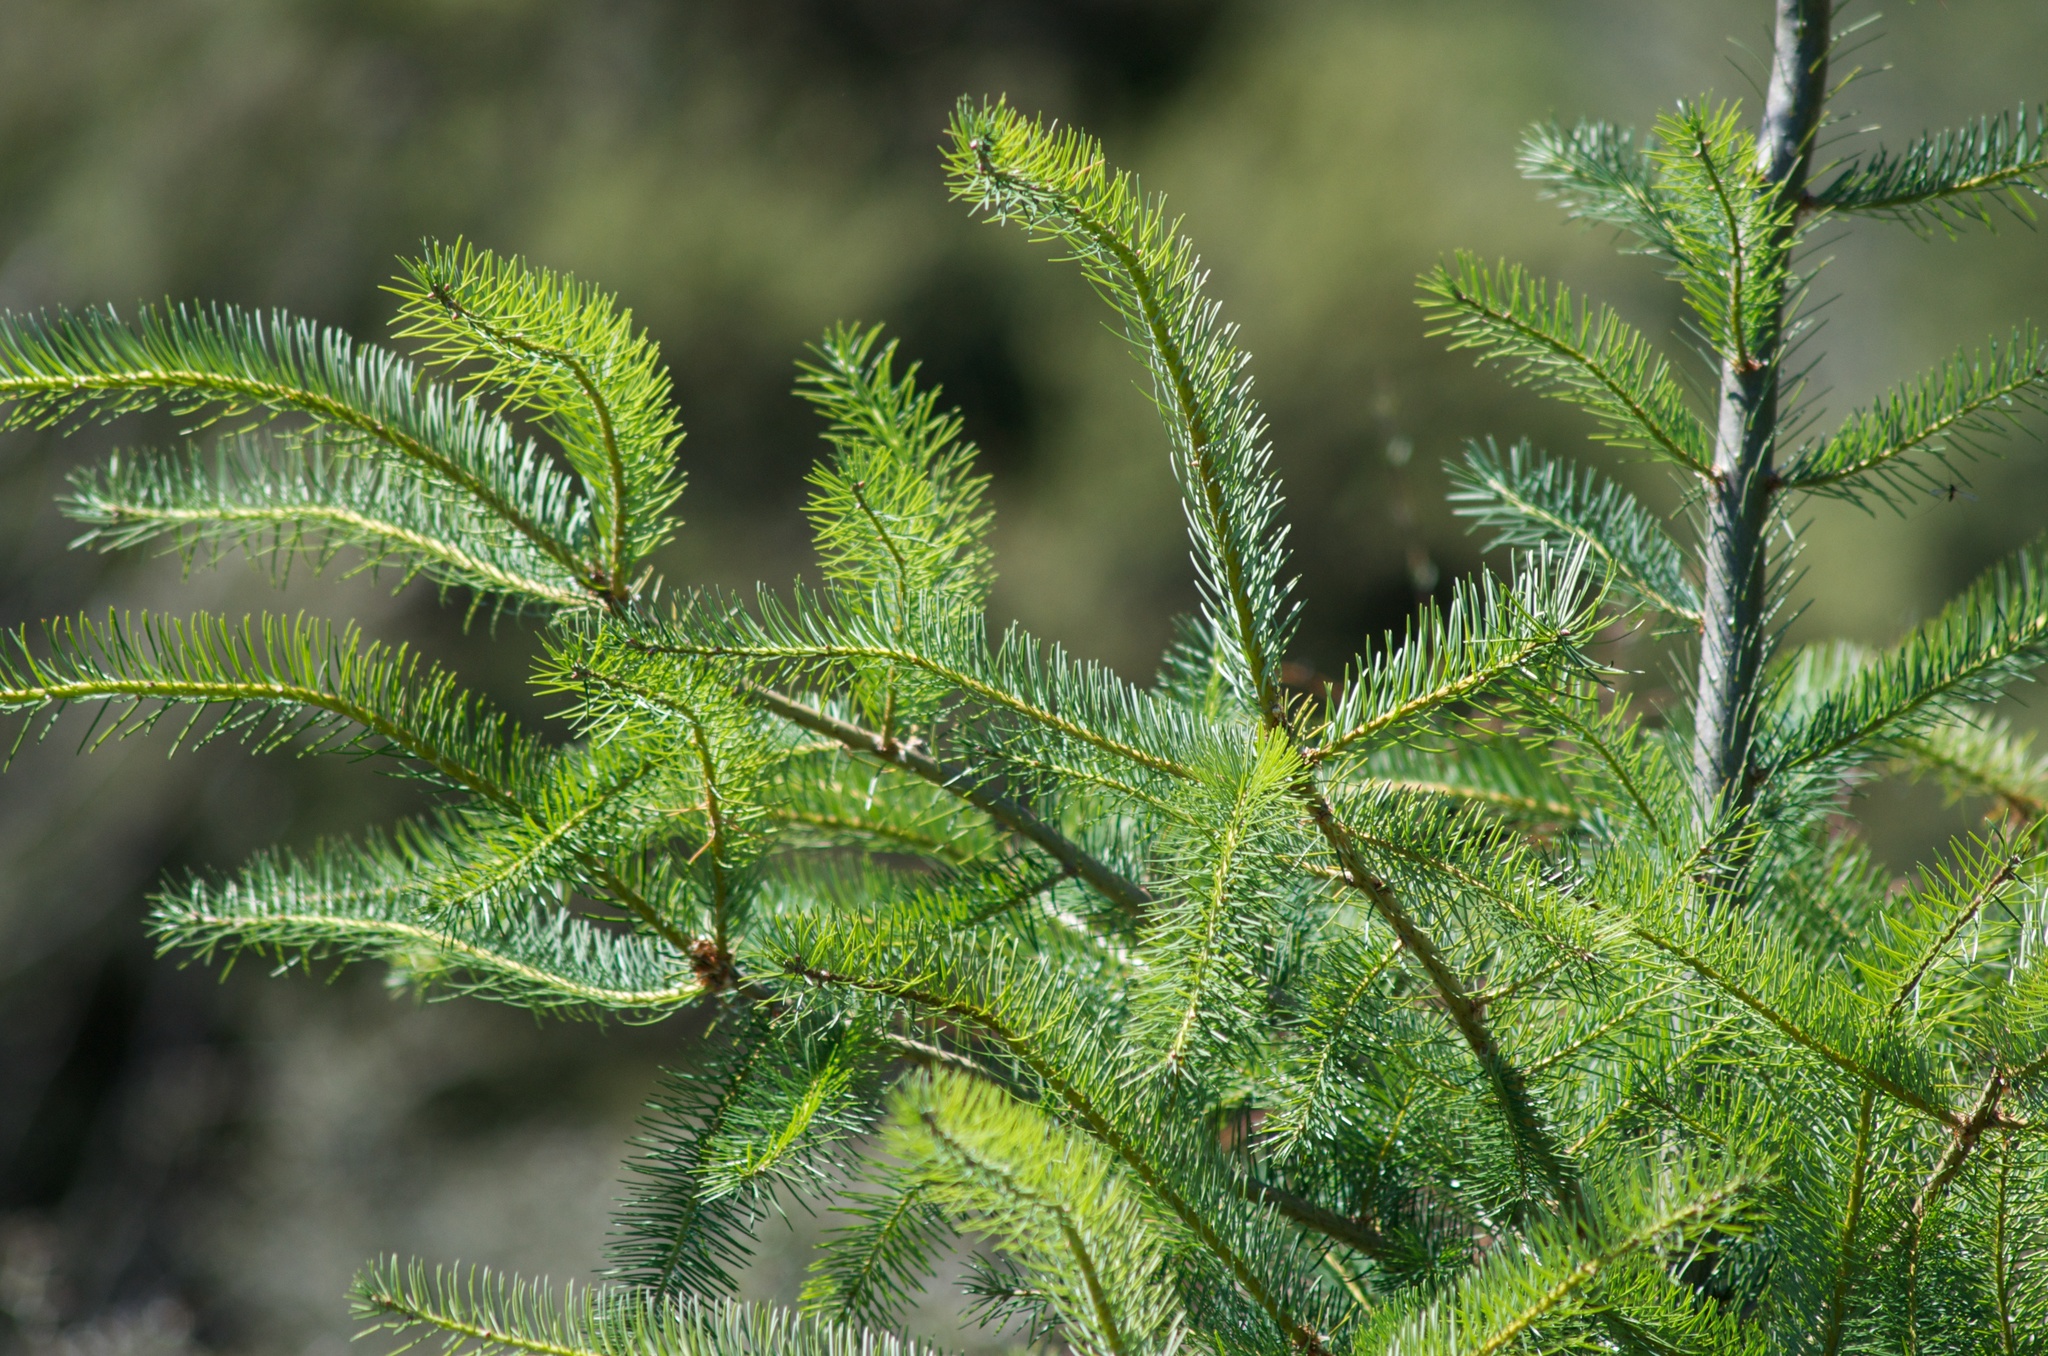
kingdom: Plantae
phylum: Tracheophyta
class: Pinopsida
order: Pinales
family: Pinaceae
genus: Pseudotsuga
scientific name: Pseudotsuga menziesii
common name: Douglas fir
